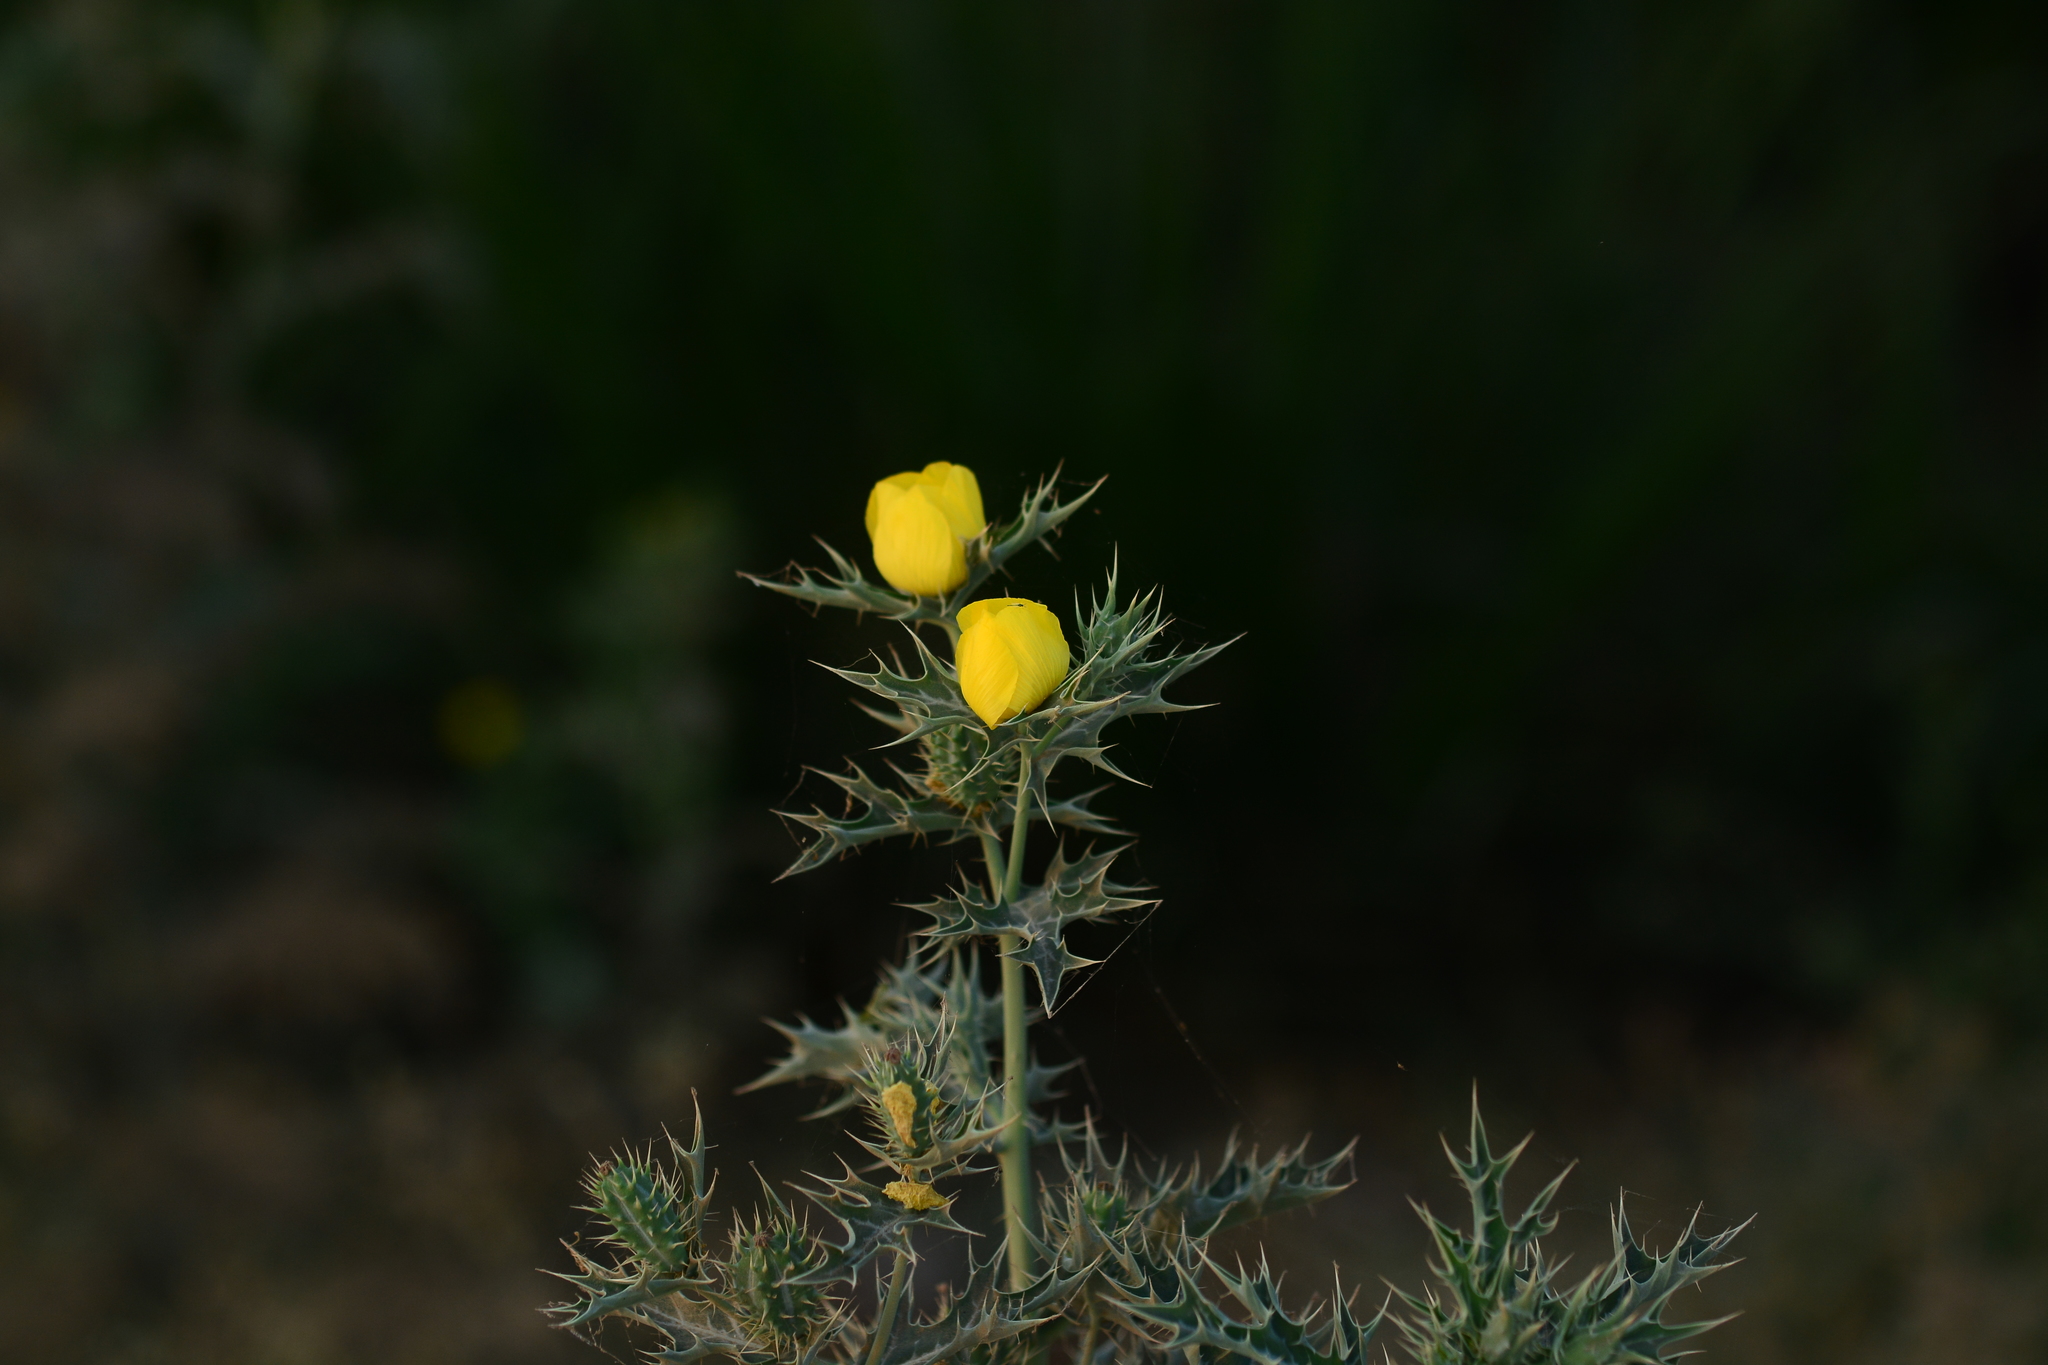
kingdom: Plantae
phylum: Tracheophyta
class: Magnoliopsida
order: Ranunculales
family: Papaveraceae
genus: Argemone
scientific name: Argemone mexicana
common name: Mexican poppy
